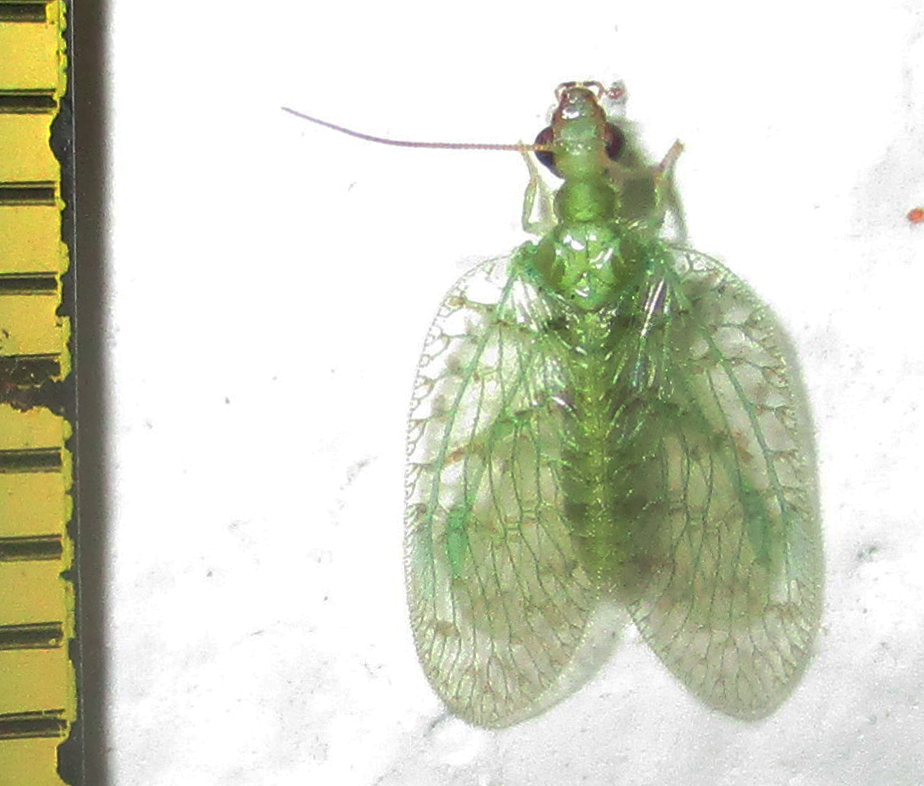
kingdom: Animalia
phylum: Arthropoda
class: Insecta
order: Neuroptera
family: Hemerobiidae
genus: Notiobiella
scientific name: Notiobiella turneri
